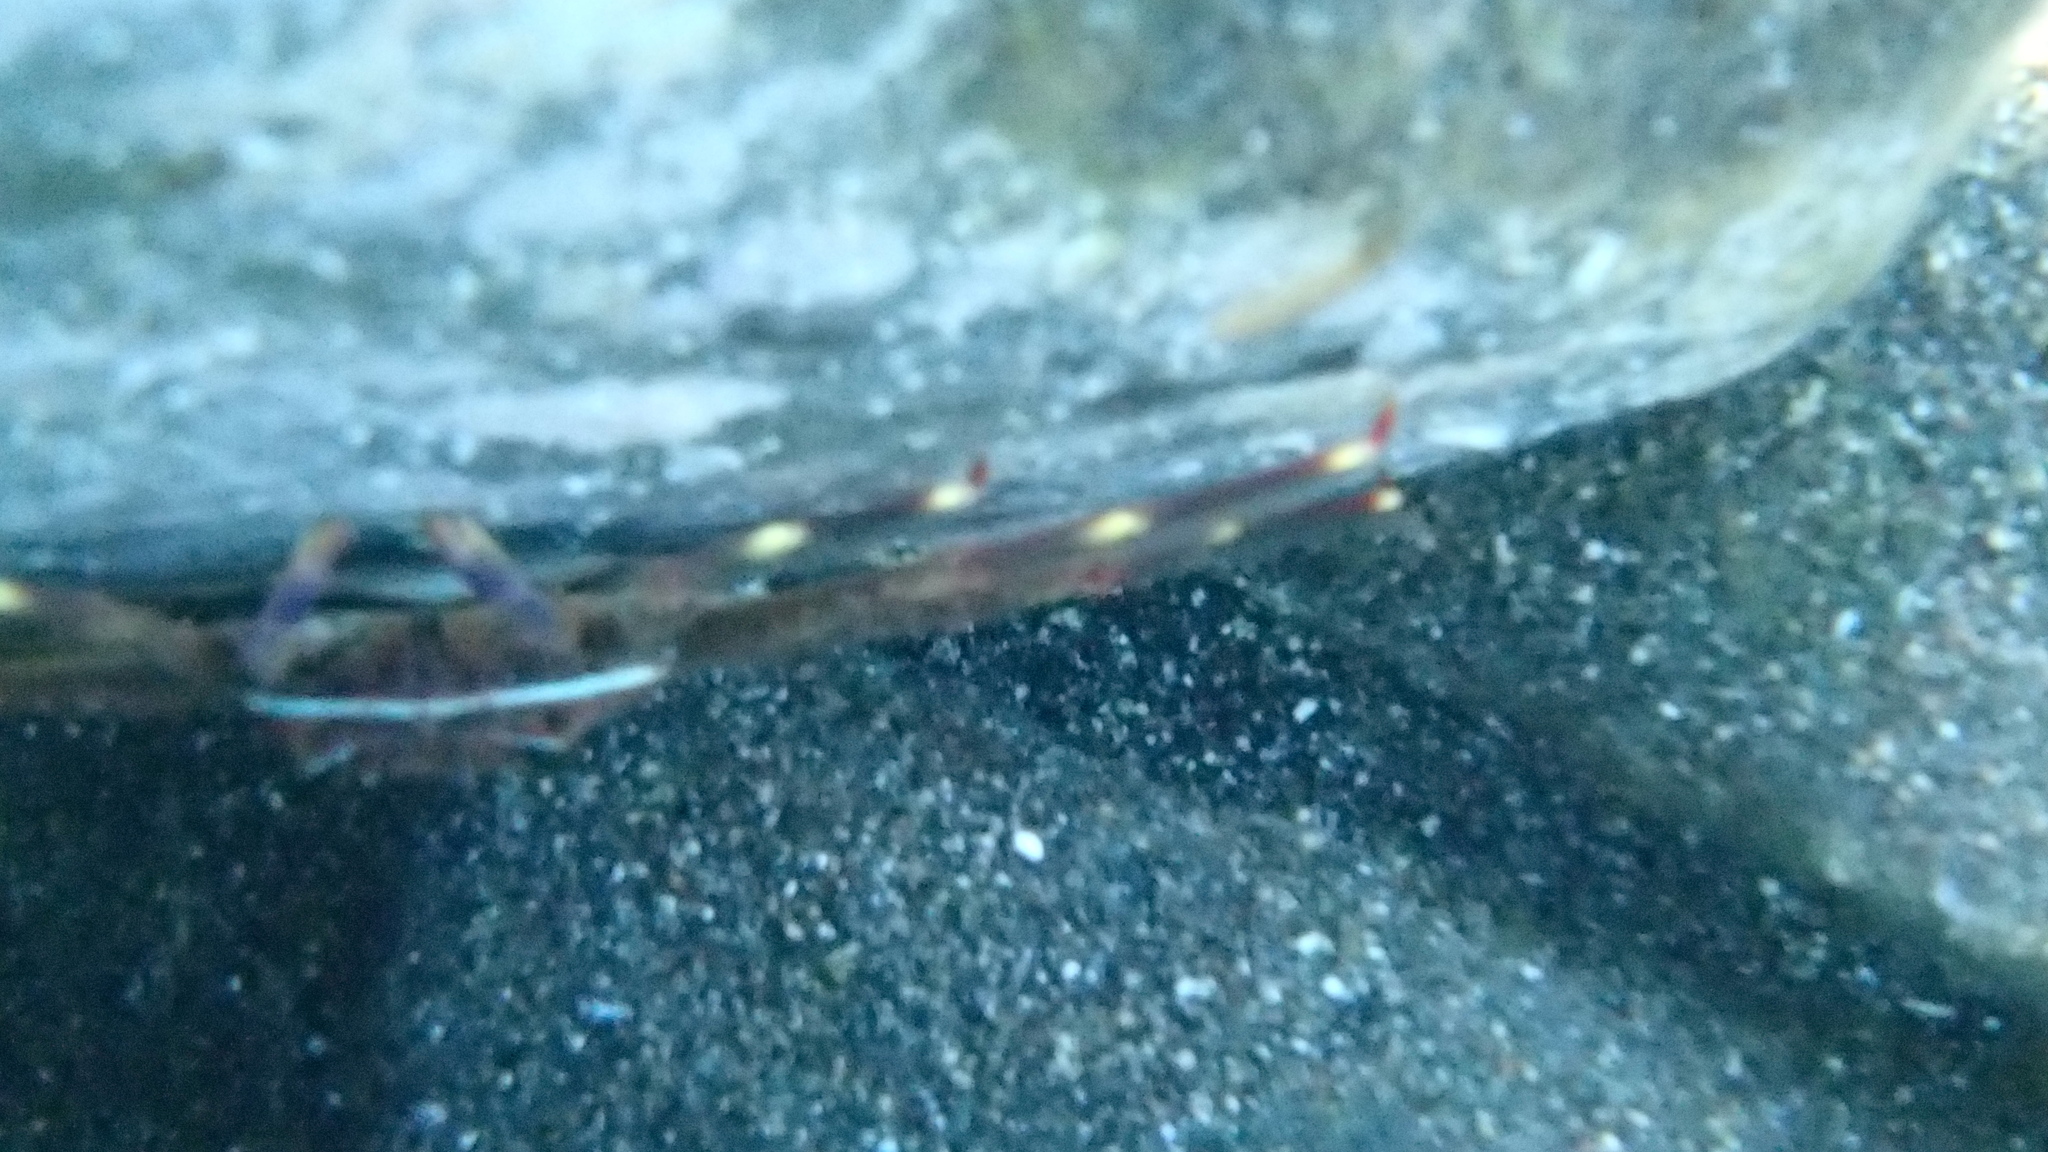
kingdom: Animalia
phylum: Arthropoda
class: Malacostraca
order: Decapoda
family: Percnidae
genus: Percnon
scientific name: Percnon gibbesi
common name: Nimble spray crab
